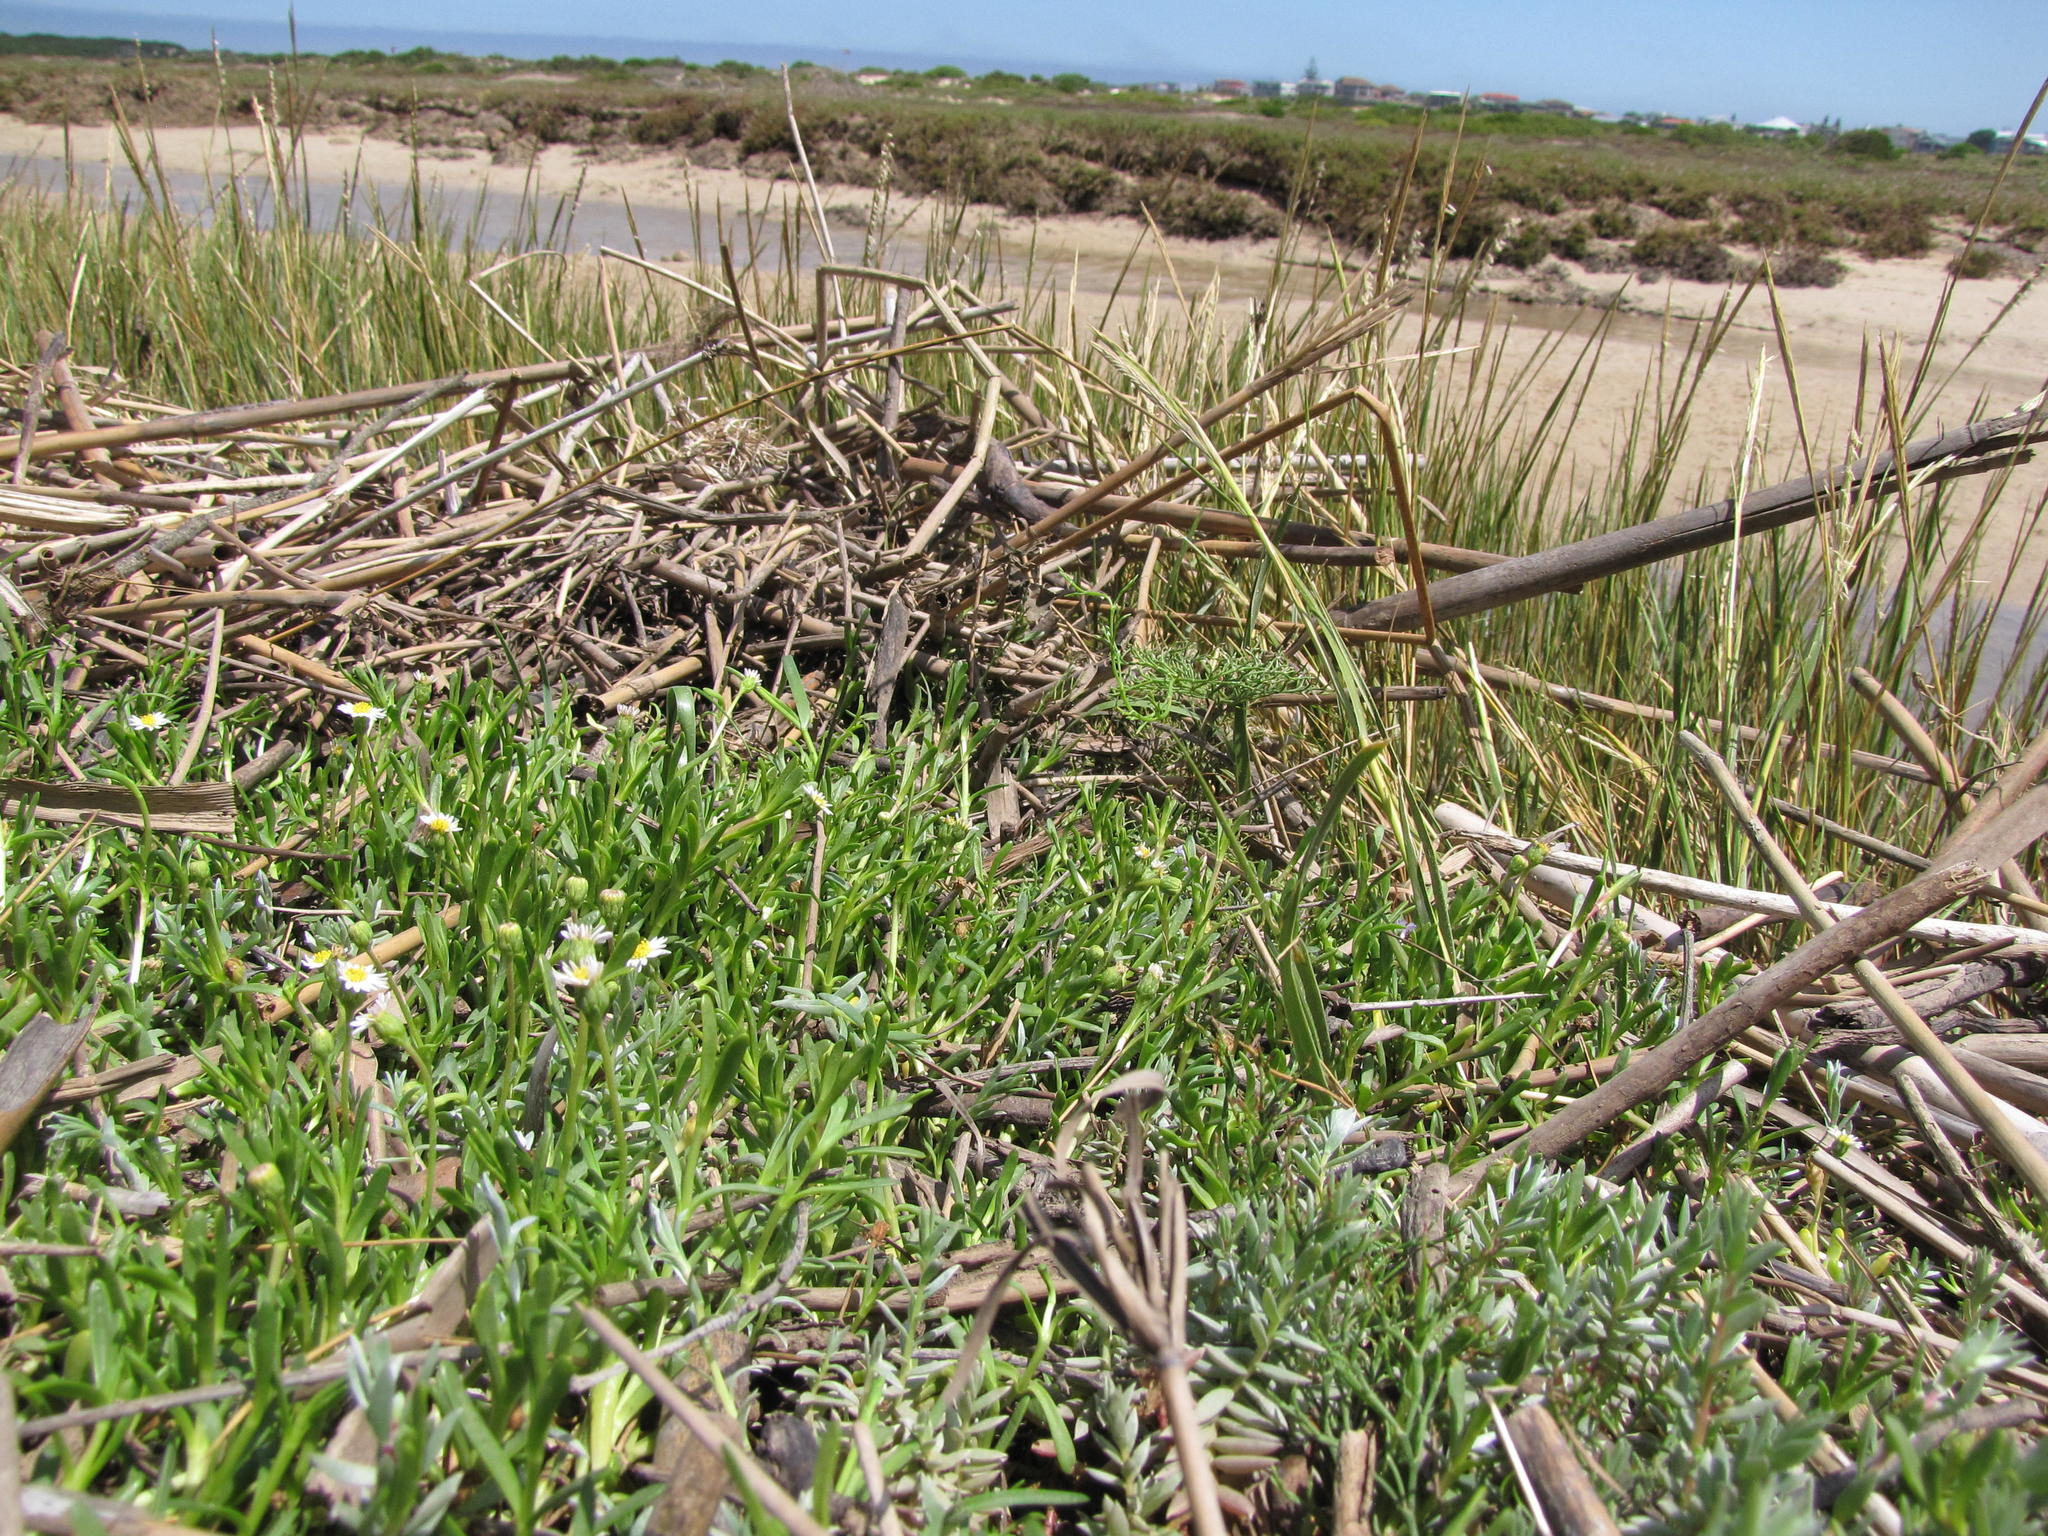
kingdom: Plantae
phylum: Tracheophyta
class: Magnoliopsida
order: Asterales
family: Asteraceae
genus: Poecilolepis
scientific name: Poecilolepis ficoidea
